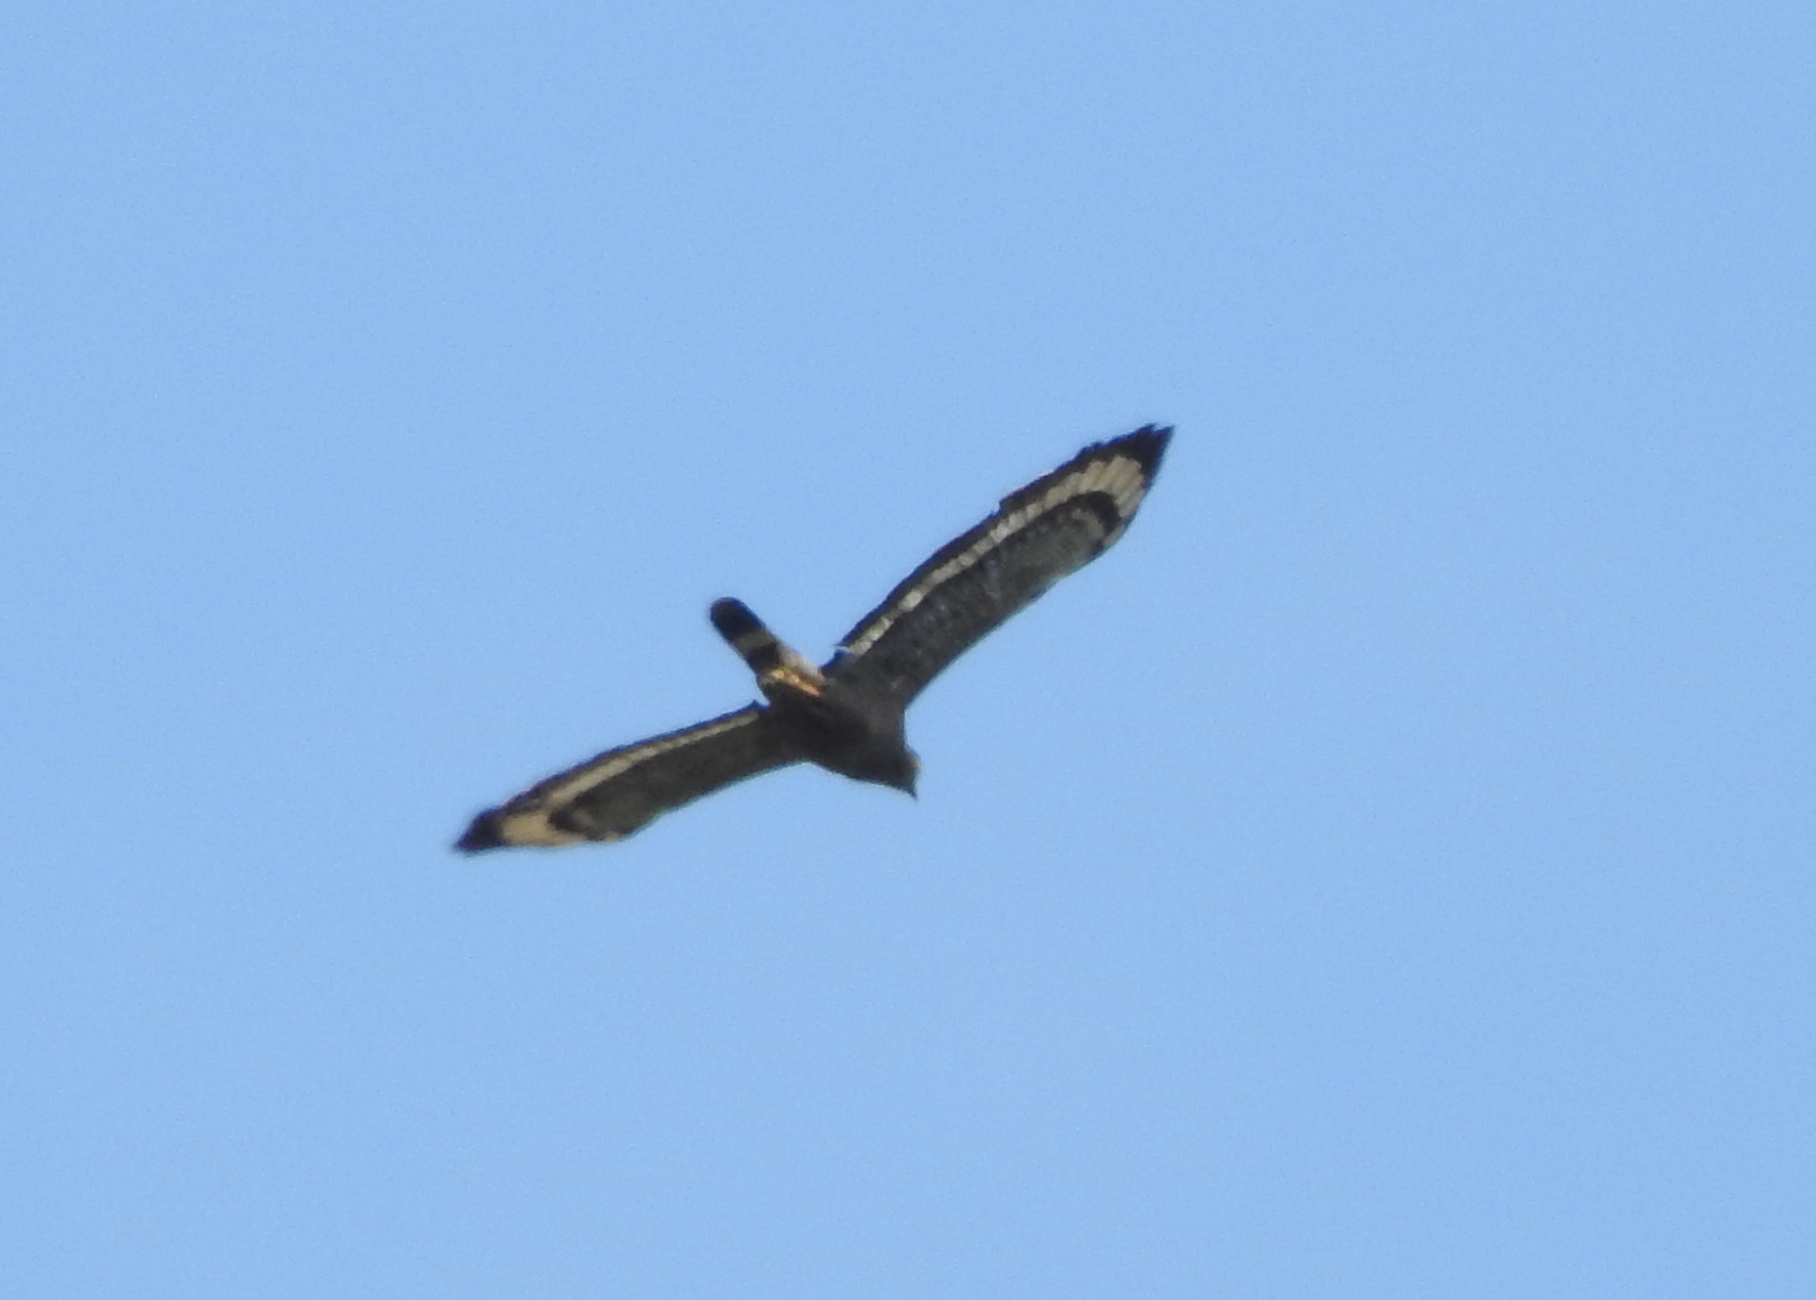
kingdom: Animalia
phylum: Chordata
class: Aves
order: Accipitriformes
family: Accipitridae
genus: Spilornis
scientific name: Spilornis cheela
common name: Crested serpent eagle
